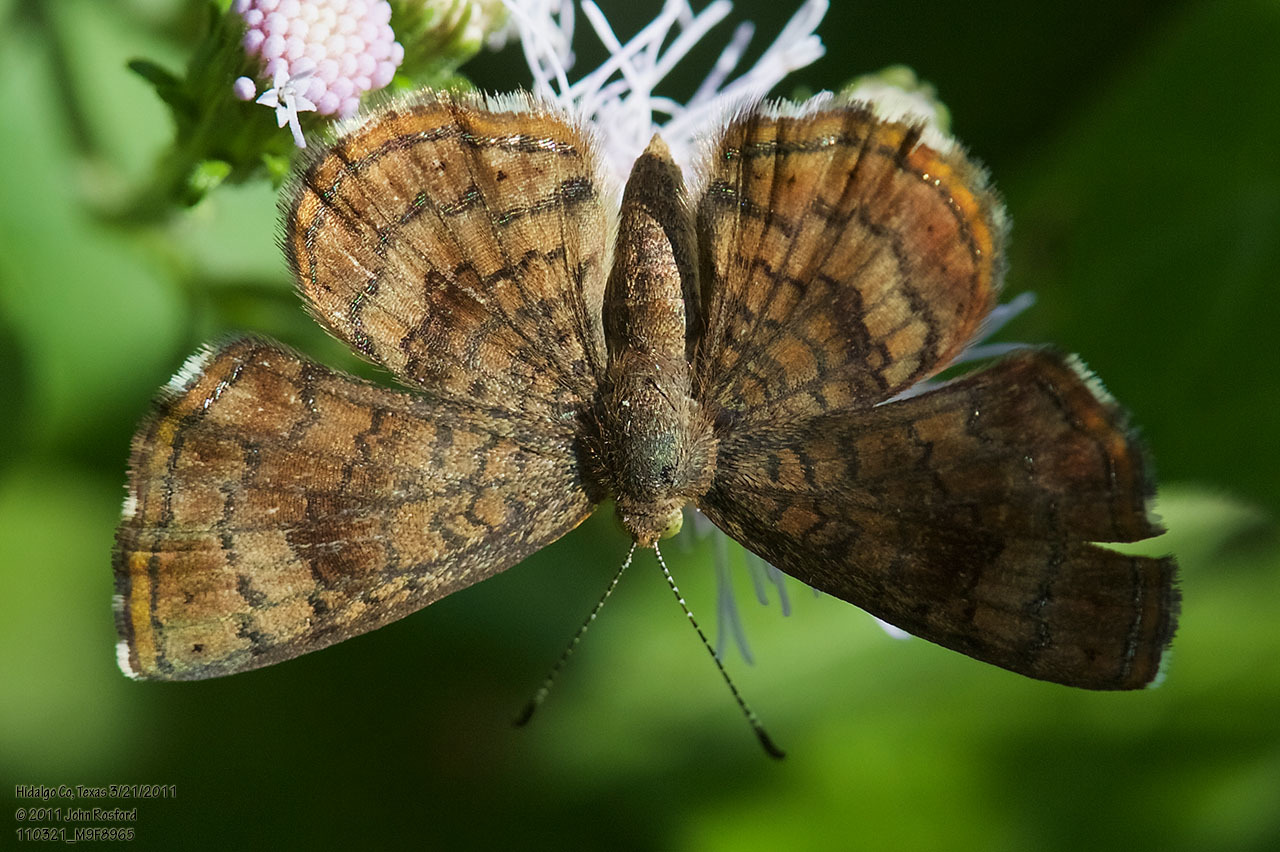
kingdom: Animalia
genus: Calephelis
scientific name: Calephelis nemesis
